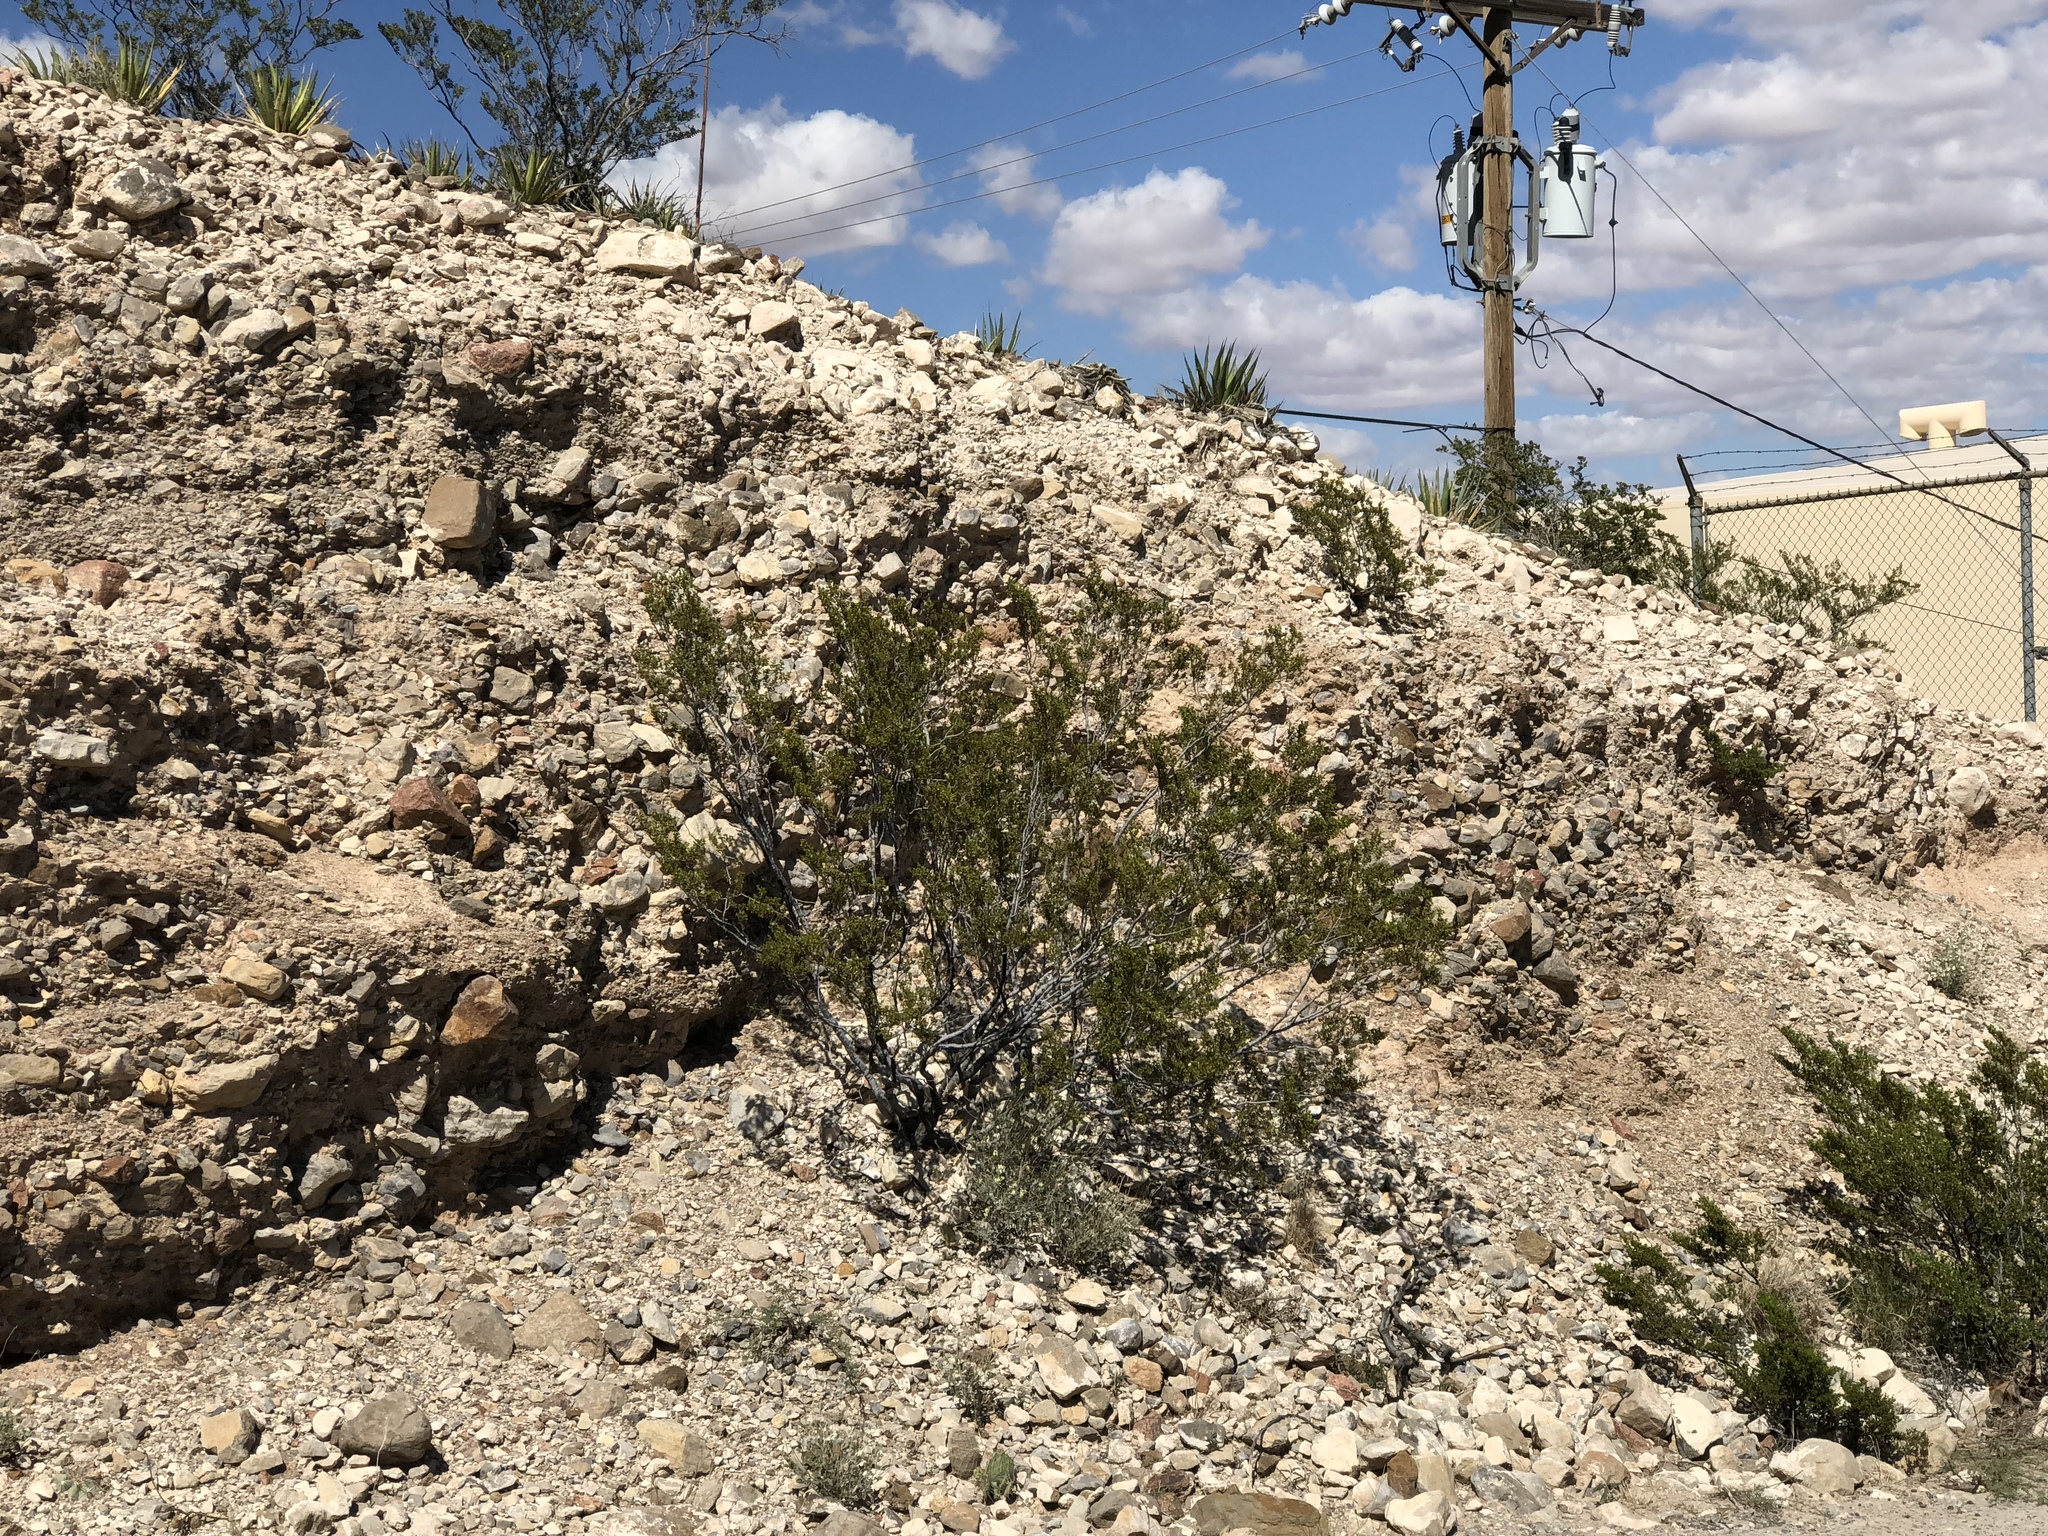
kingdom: Plantae
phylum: Tracheophyta
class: Magnoliopsida
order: Zygophyllales
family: Zygophyllaceae
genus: Larrea
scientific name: Larrea tridentata
